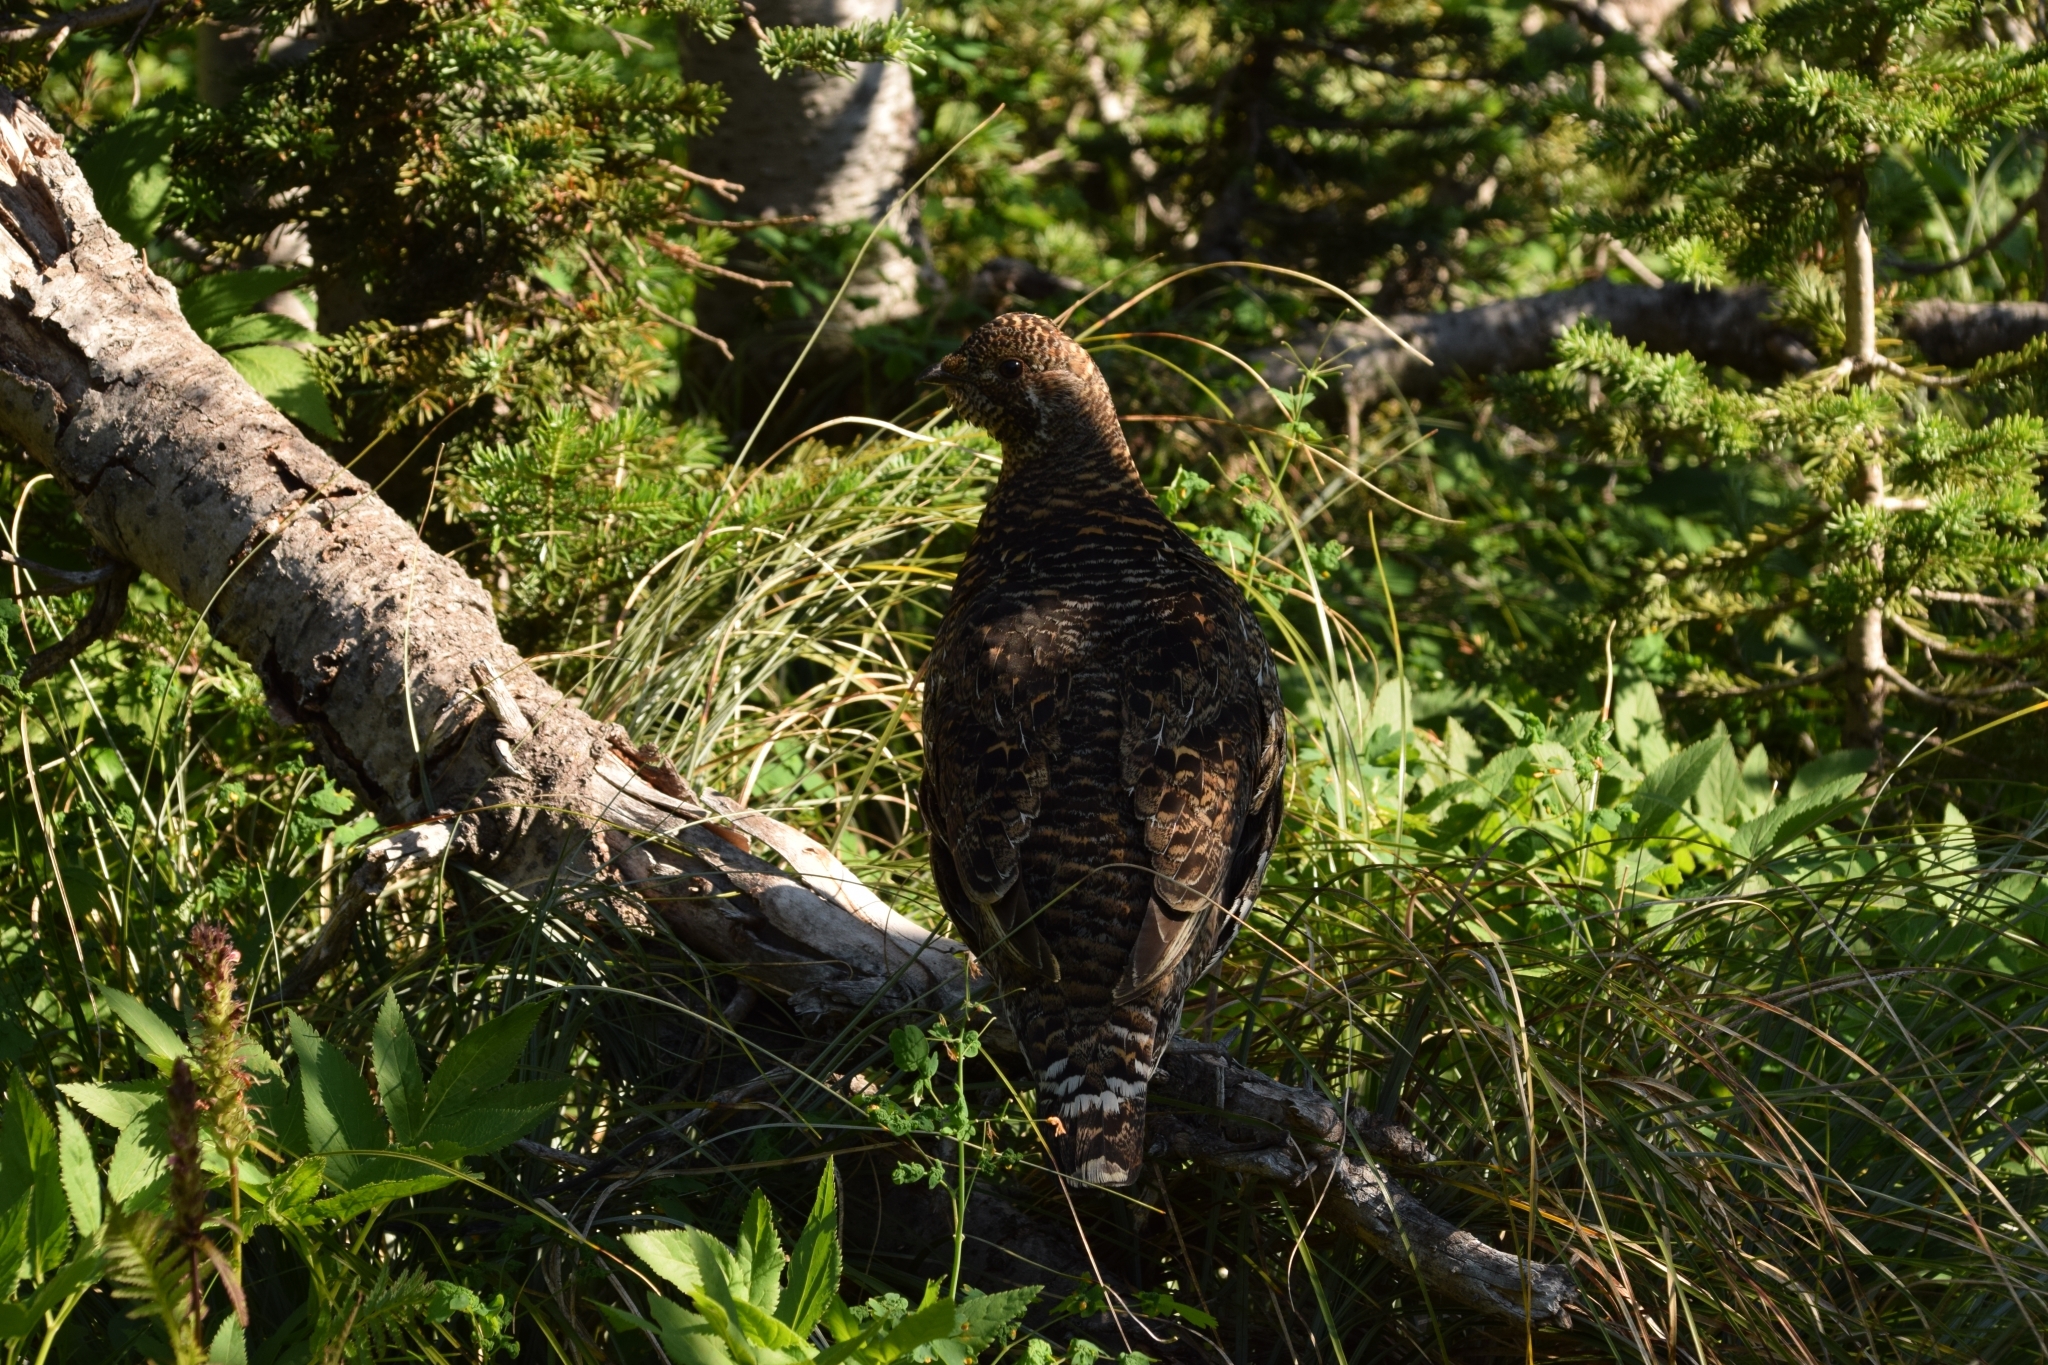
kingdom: Animalia
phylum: Chordata
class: Aves
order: Galliformes
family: Phasianidae
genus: Canachites
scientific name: Canachites canadensis
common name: Spruce grouse
